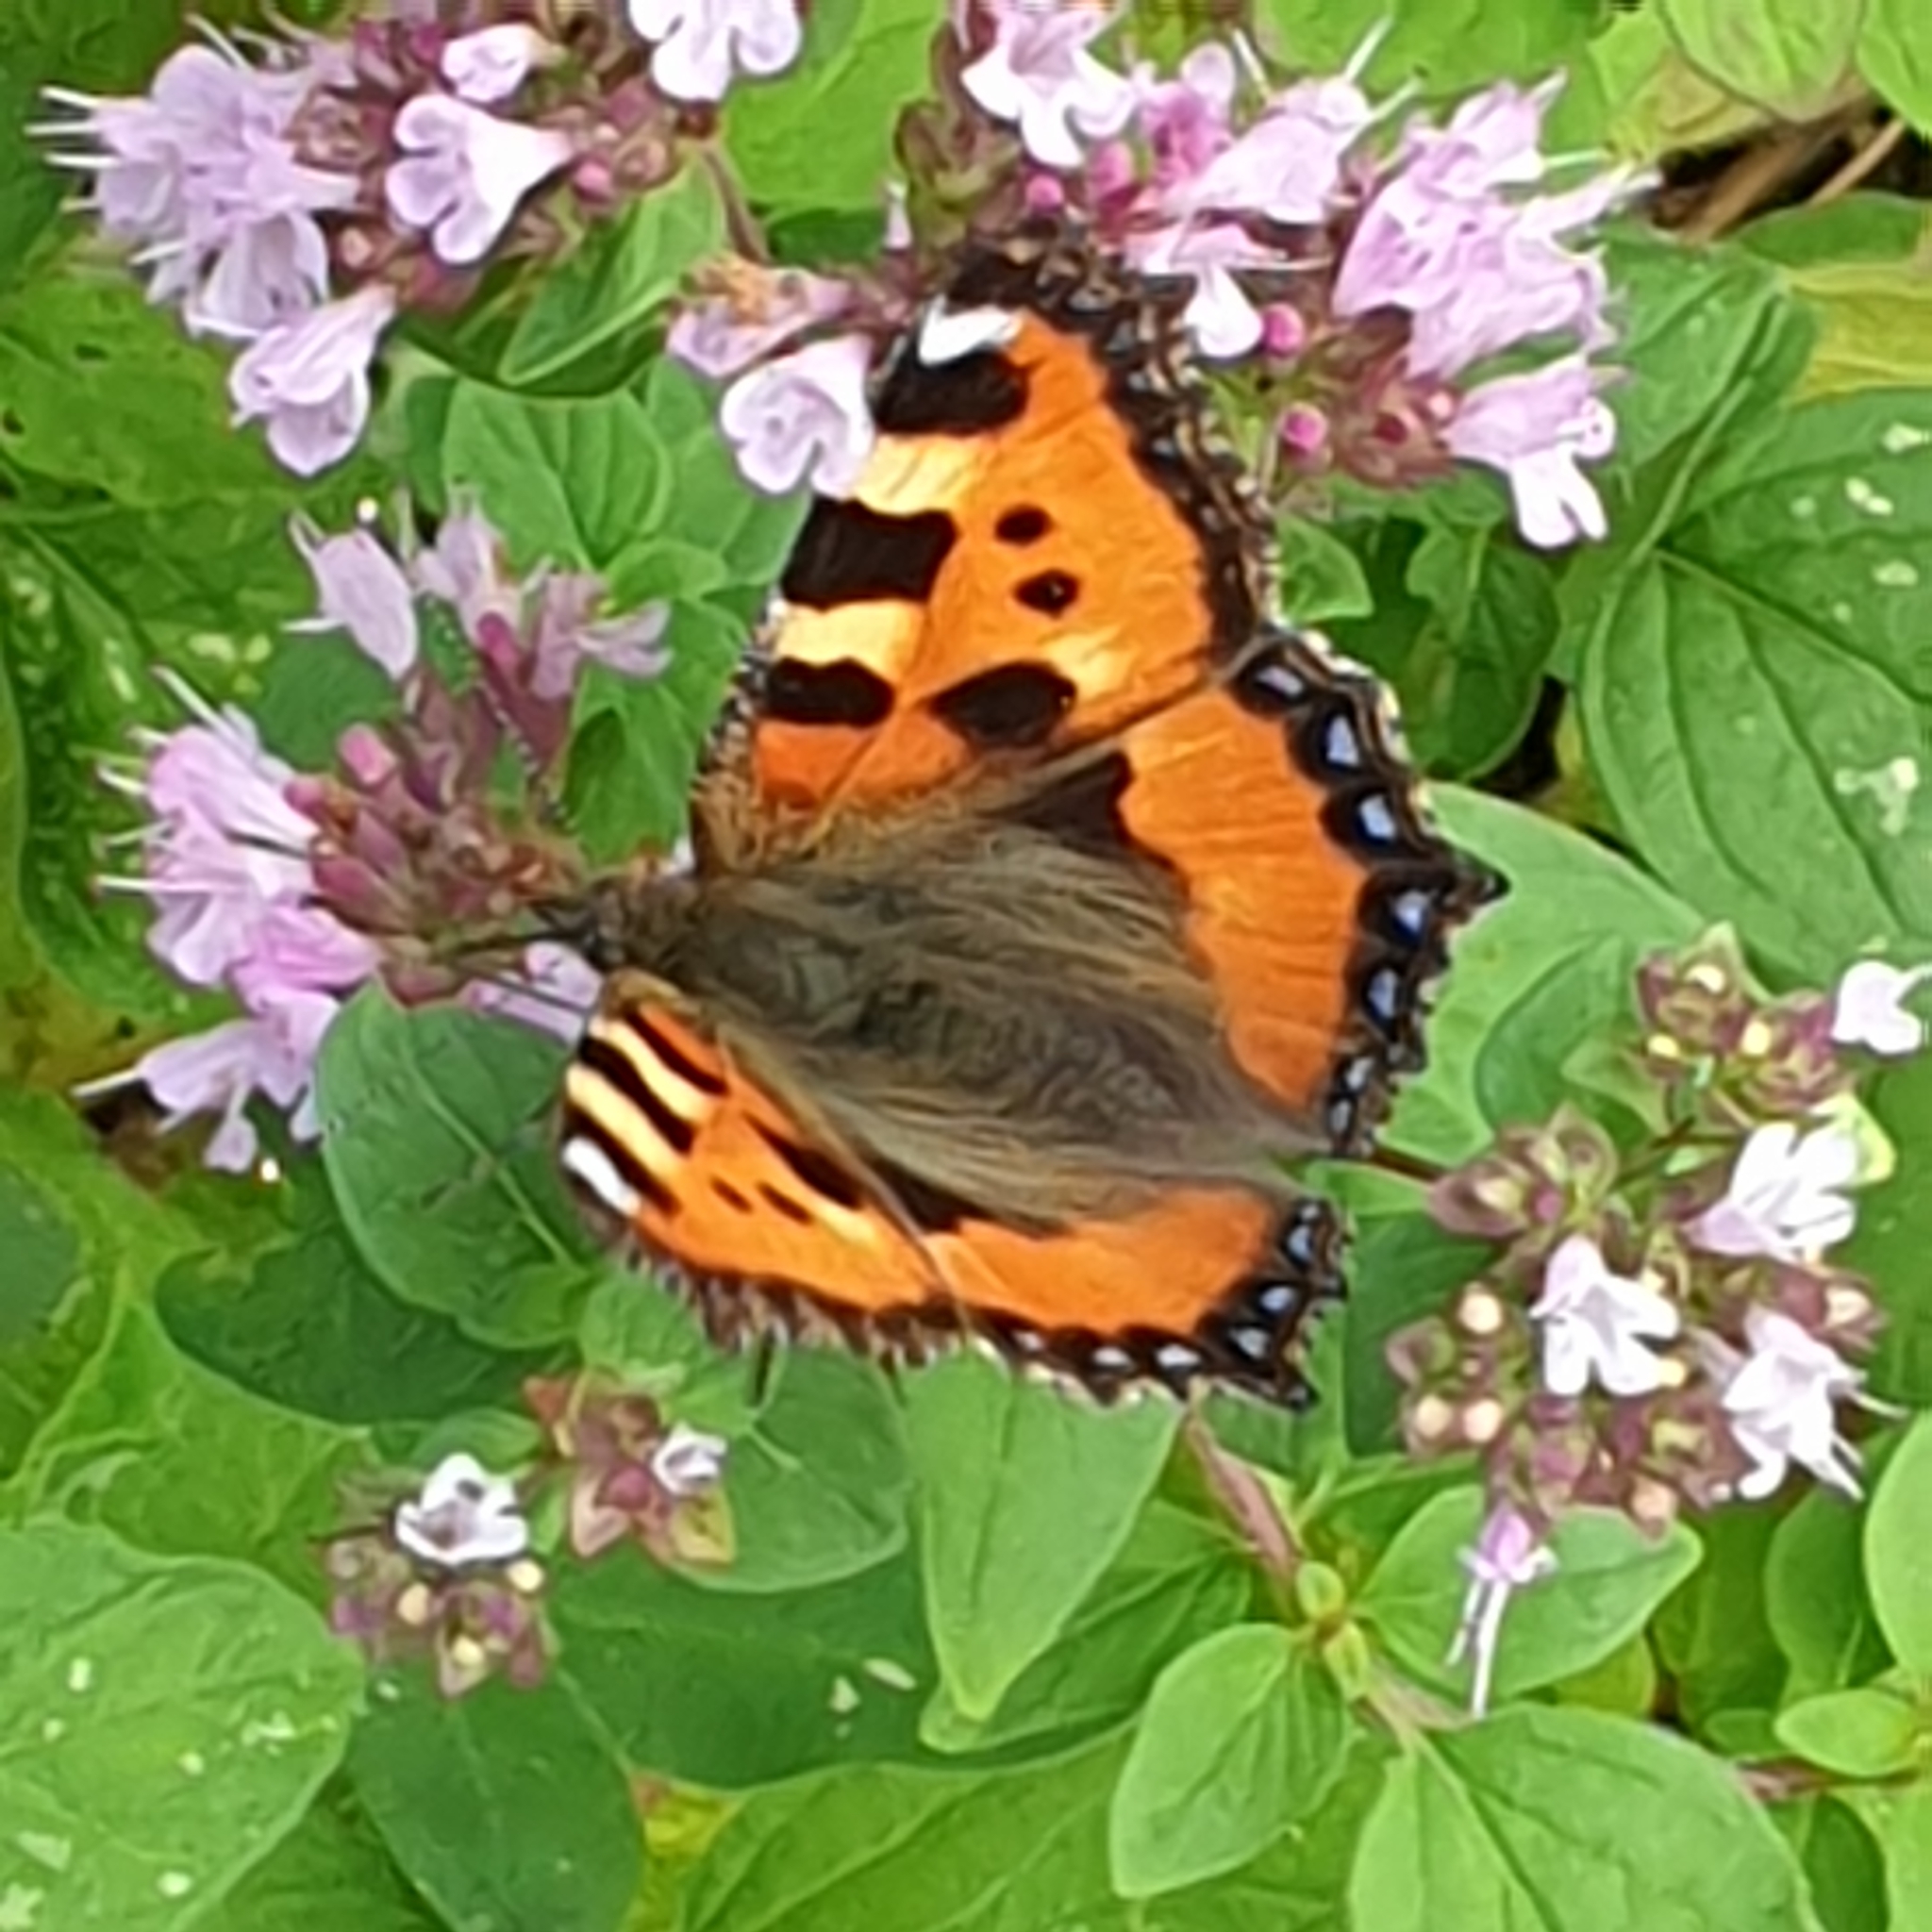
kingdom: Animalia
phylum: Arthropoda
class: Insecta
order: Lepidoptera
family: Nymphalidae
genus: Aglais
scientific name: Aglais urticae
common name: Small tortoiseshell
